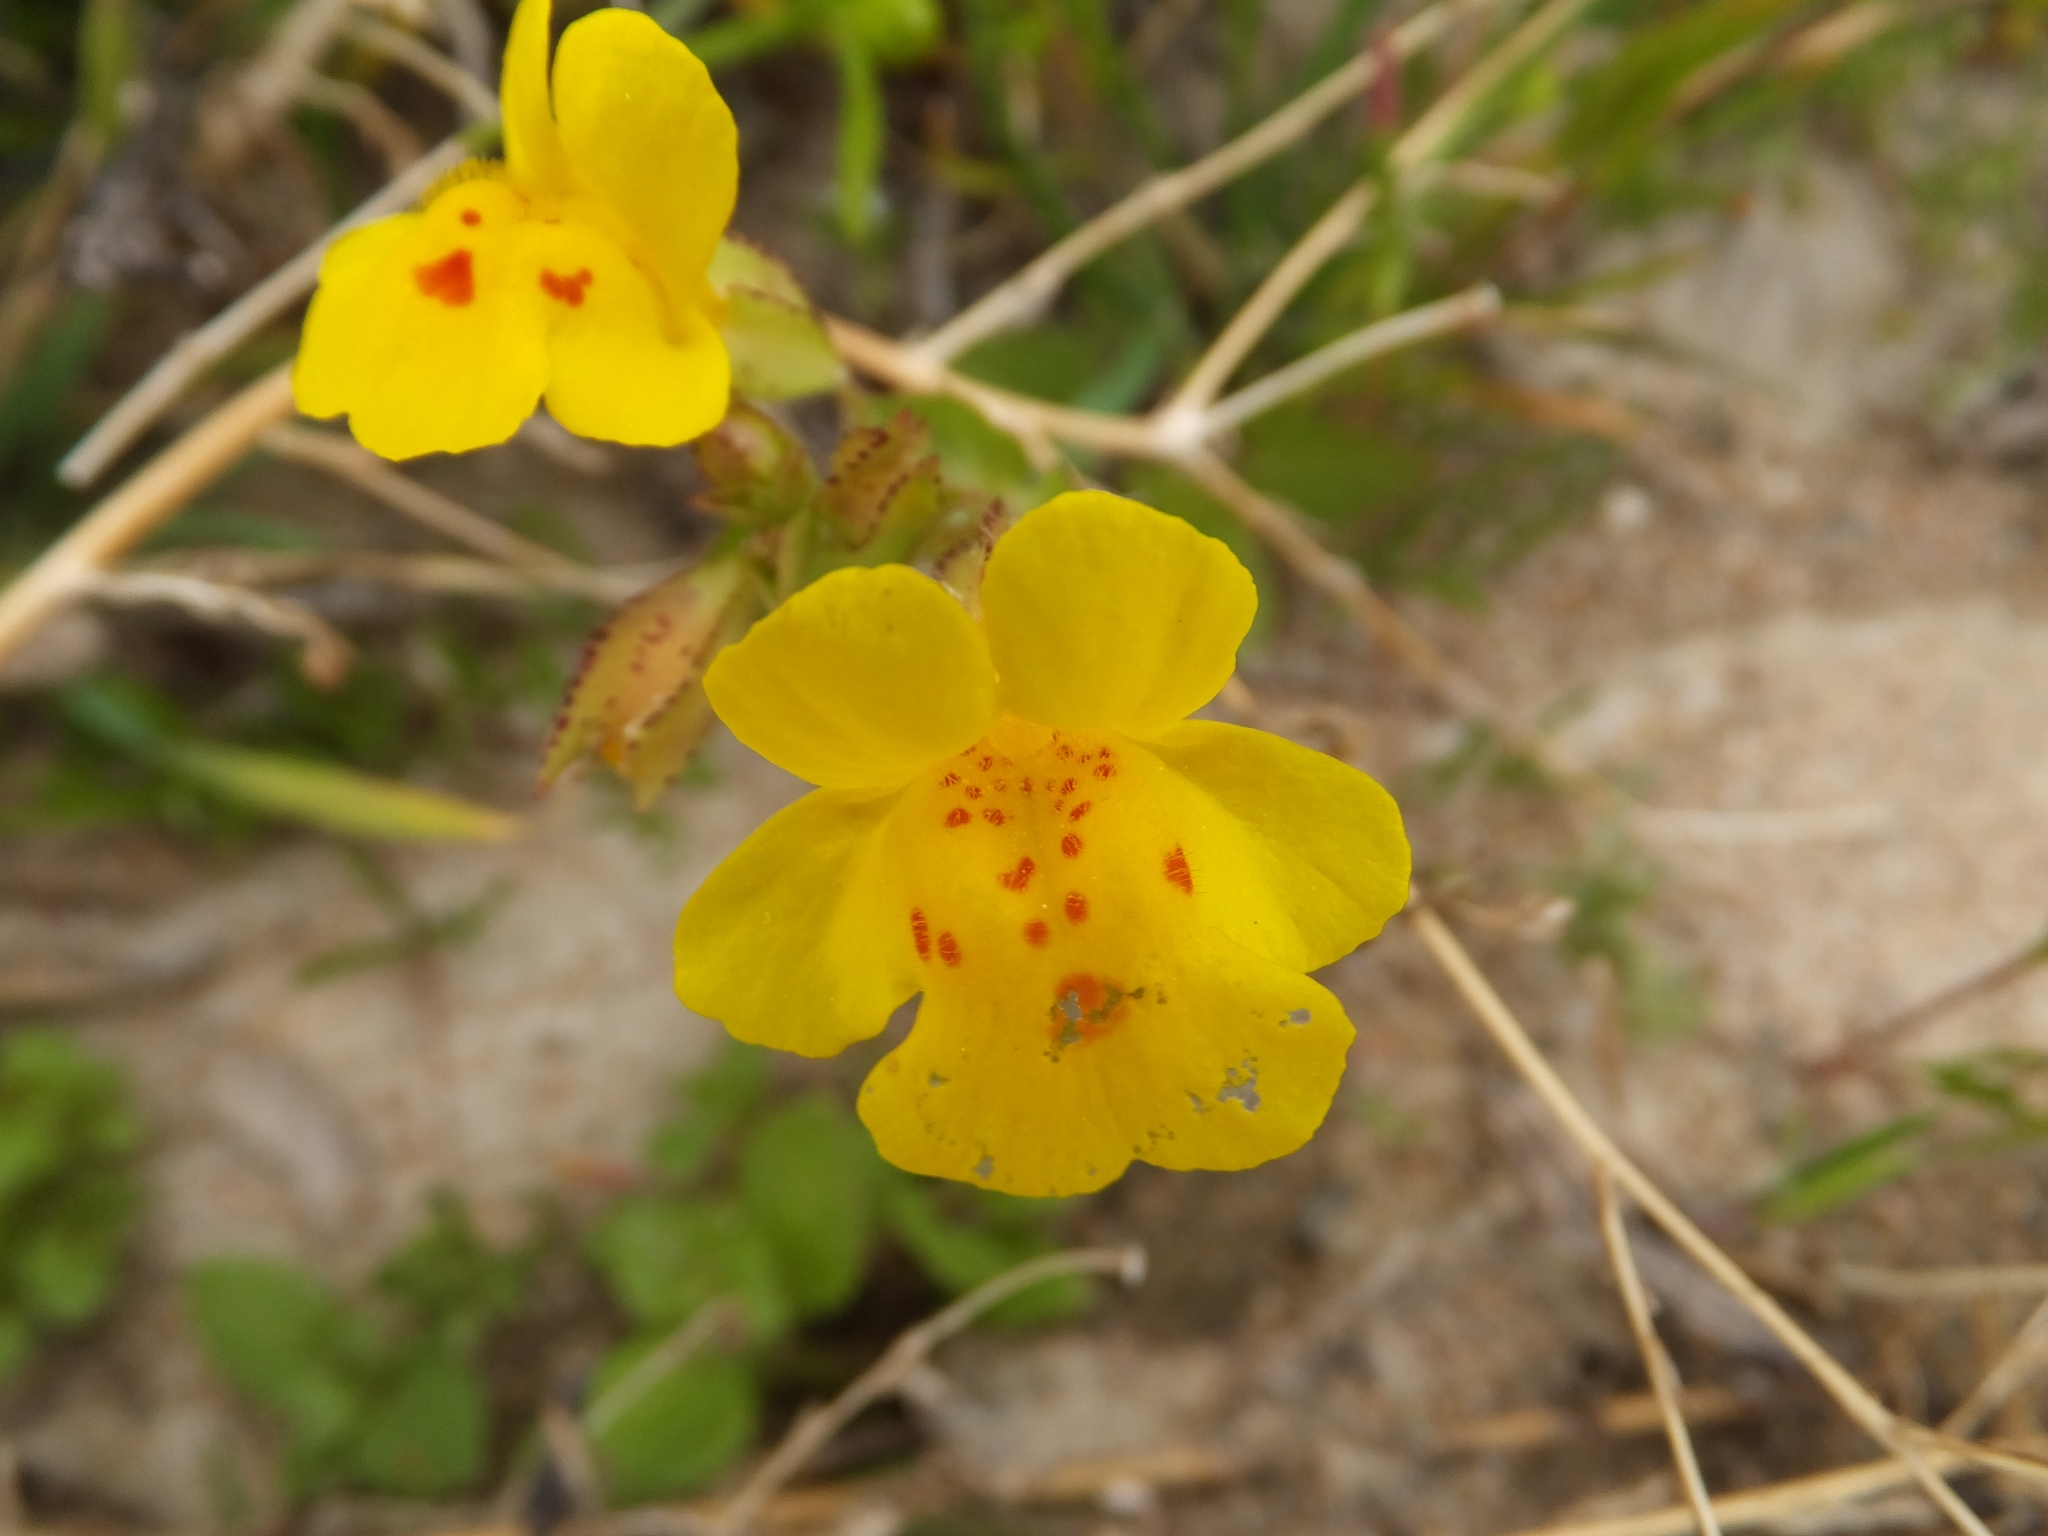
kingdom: Plantae
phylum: Tracheophyta
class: Magnoliopsida
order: Lamiales
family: Phrymaceae
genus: Erythranthe
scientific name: Erythranthe guttata
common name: Monkeyflower
